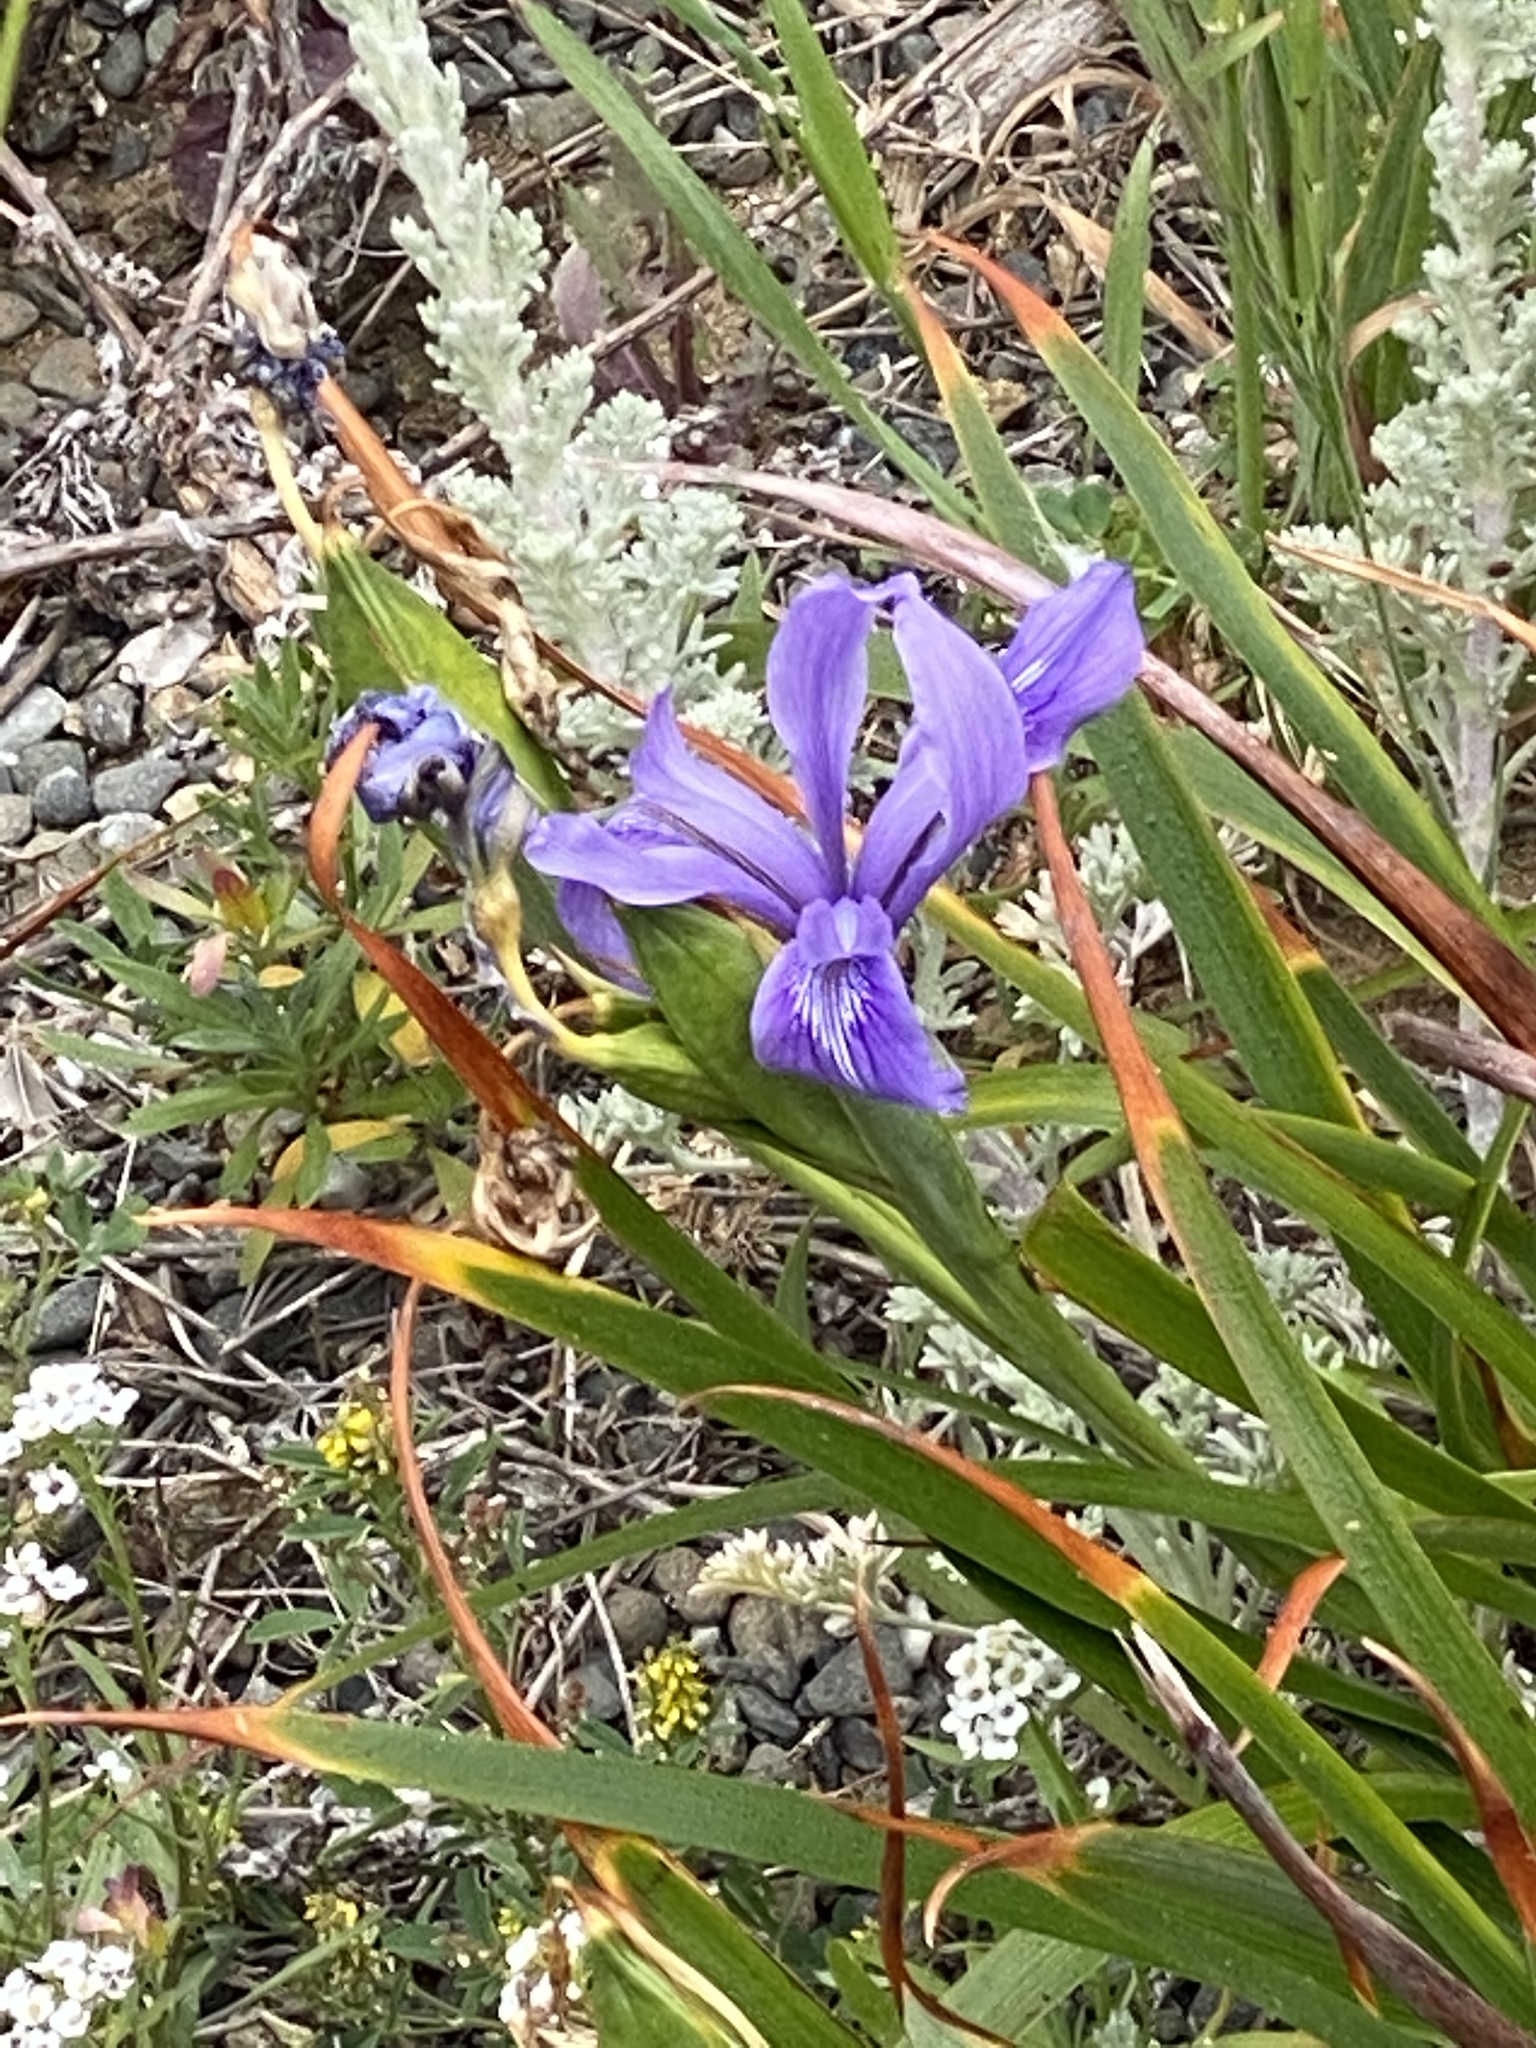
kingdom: Plantae
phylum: Tracheophyta
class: Liliopsida
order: Asparagales
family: Iridaceae
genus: Iris
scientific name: Iris douglasiana
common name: Marin iris
